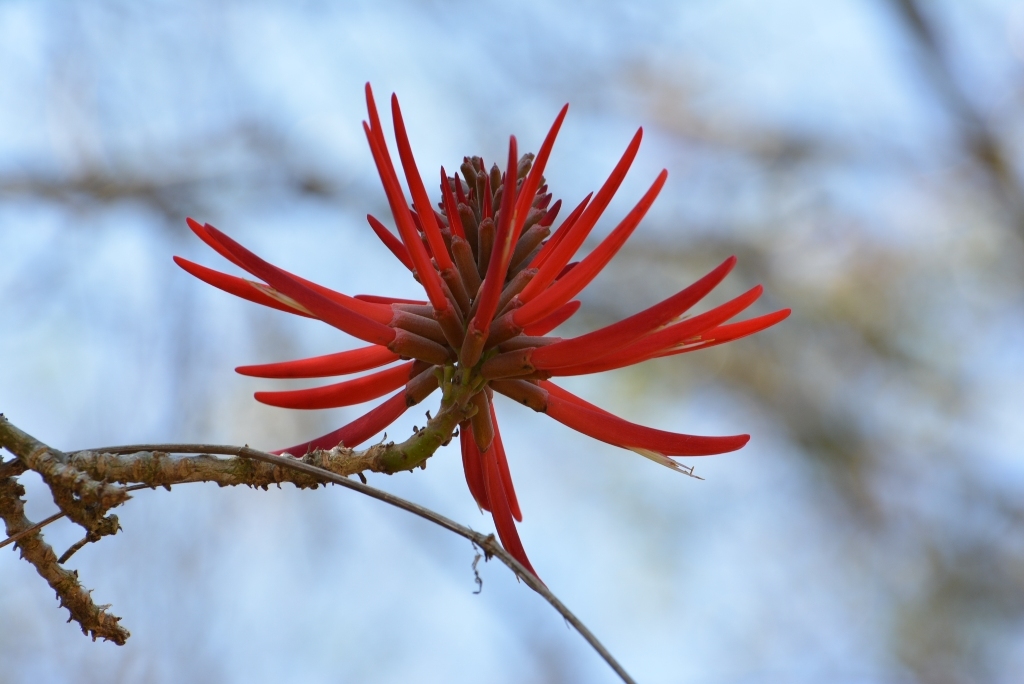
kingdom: Plantae
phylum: Tracheophyta
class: Magnoliopsida
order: Fabales
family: Fabaceae
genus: Erythrina
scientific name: Erythrina chiapasana
